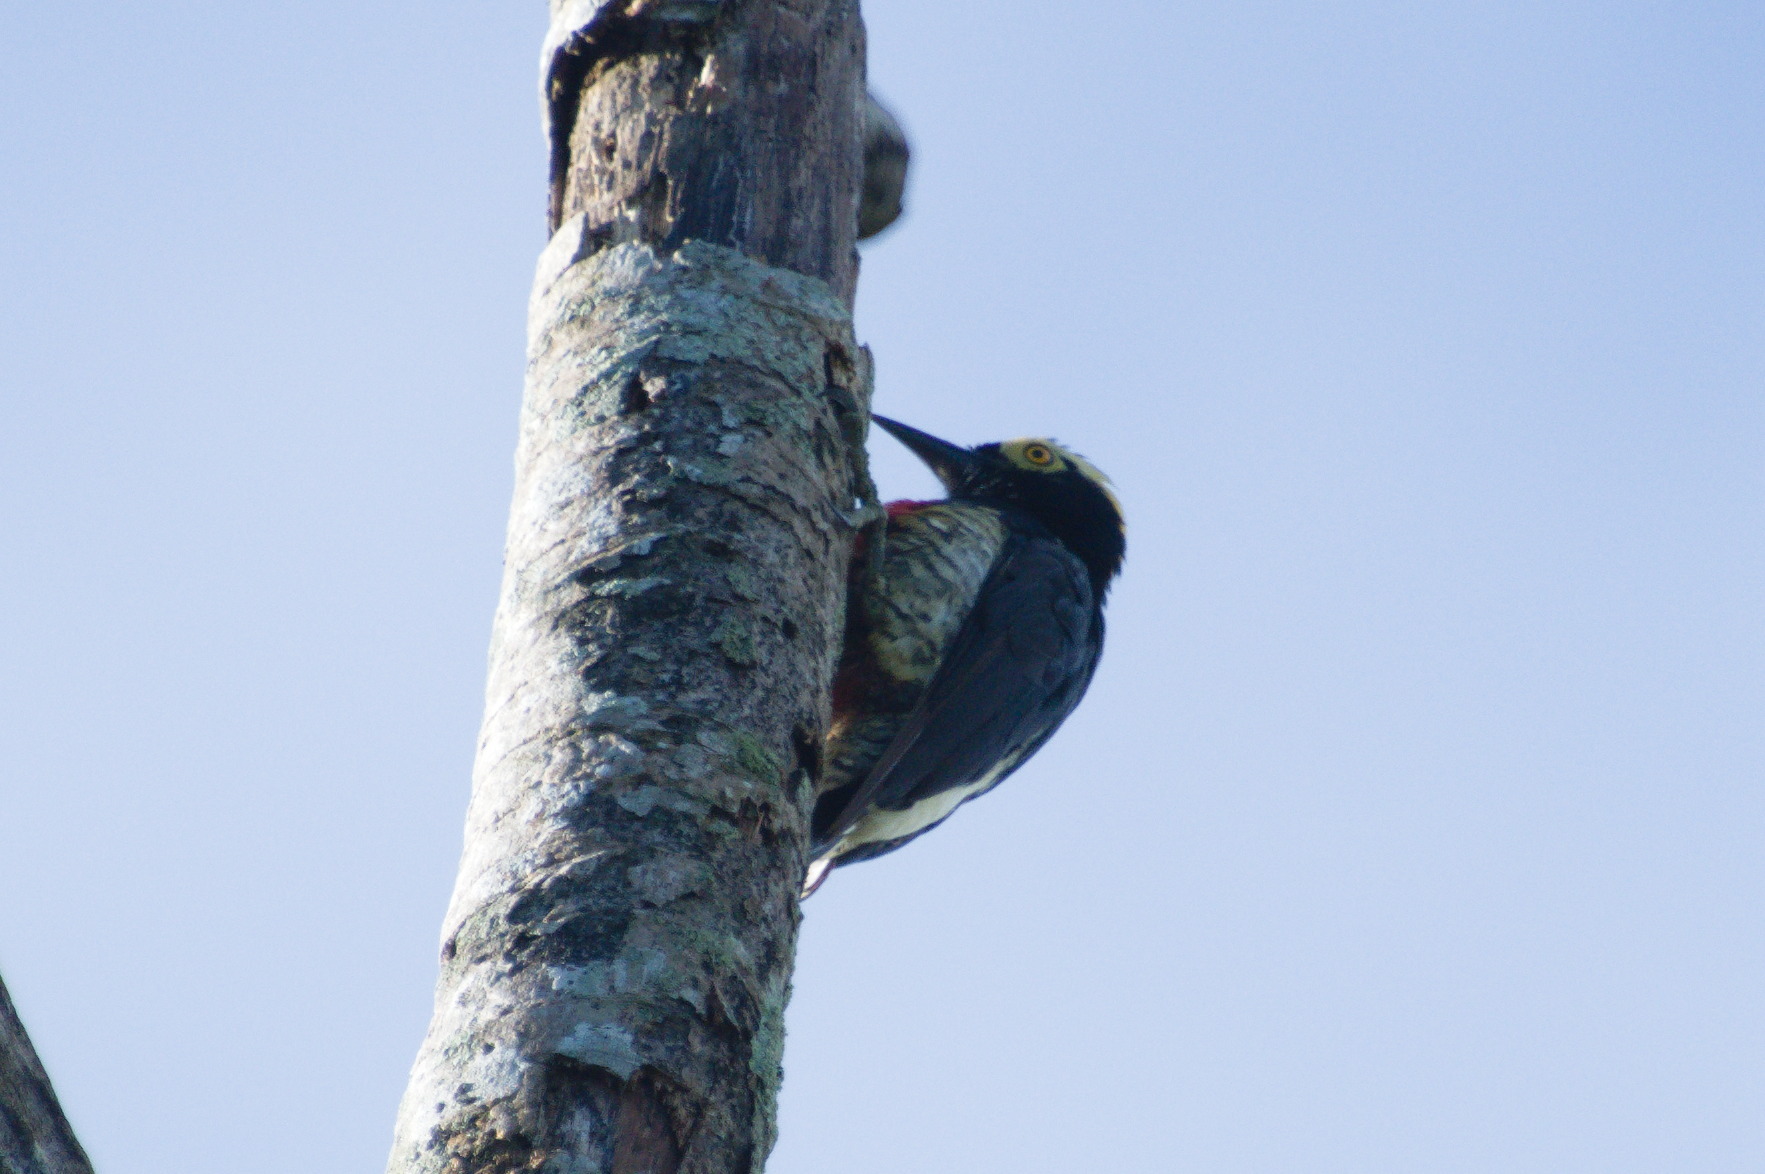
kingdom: Animalia
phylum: Chordata
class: Aves
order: Piciformes
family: Picidae
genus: Melanerpes
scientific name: Melanerpes cruentatus
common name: Yellow-tufted woodpecker
